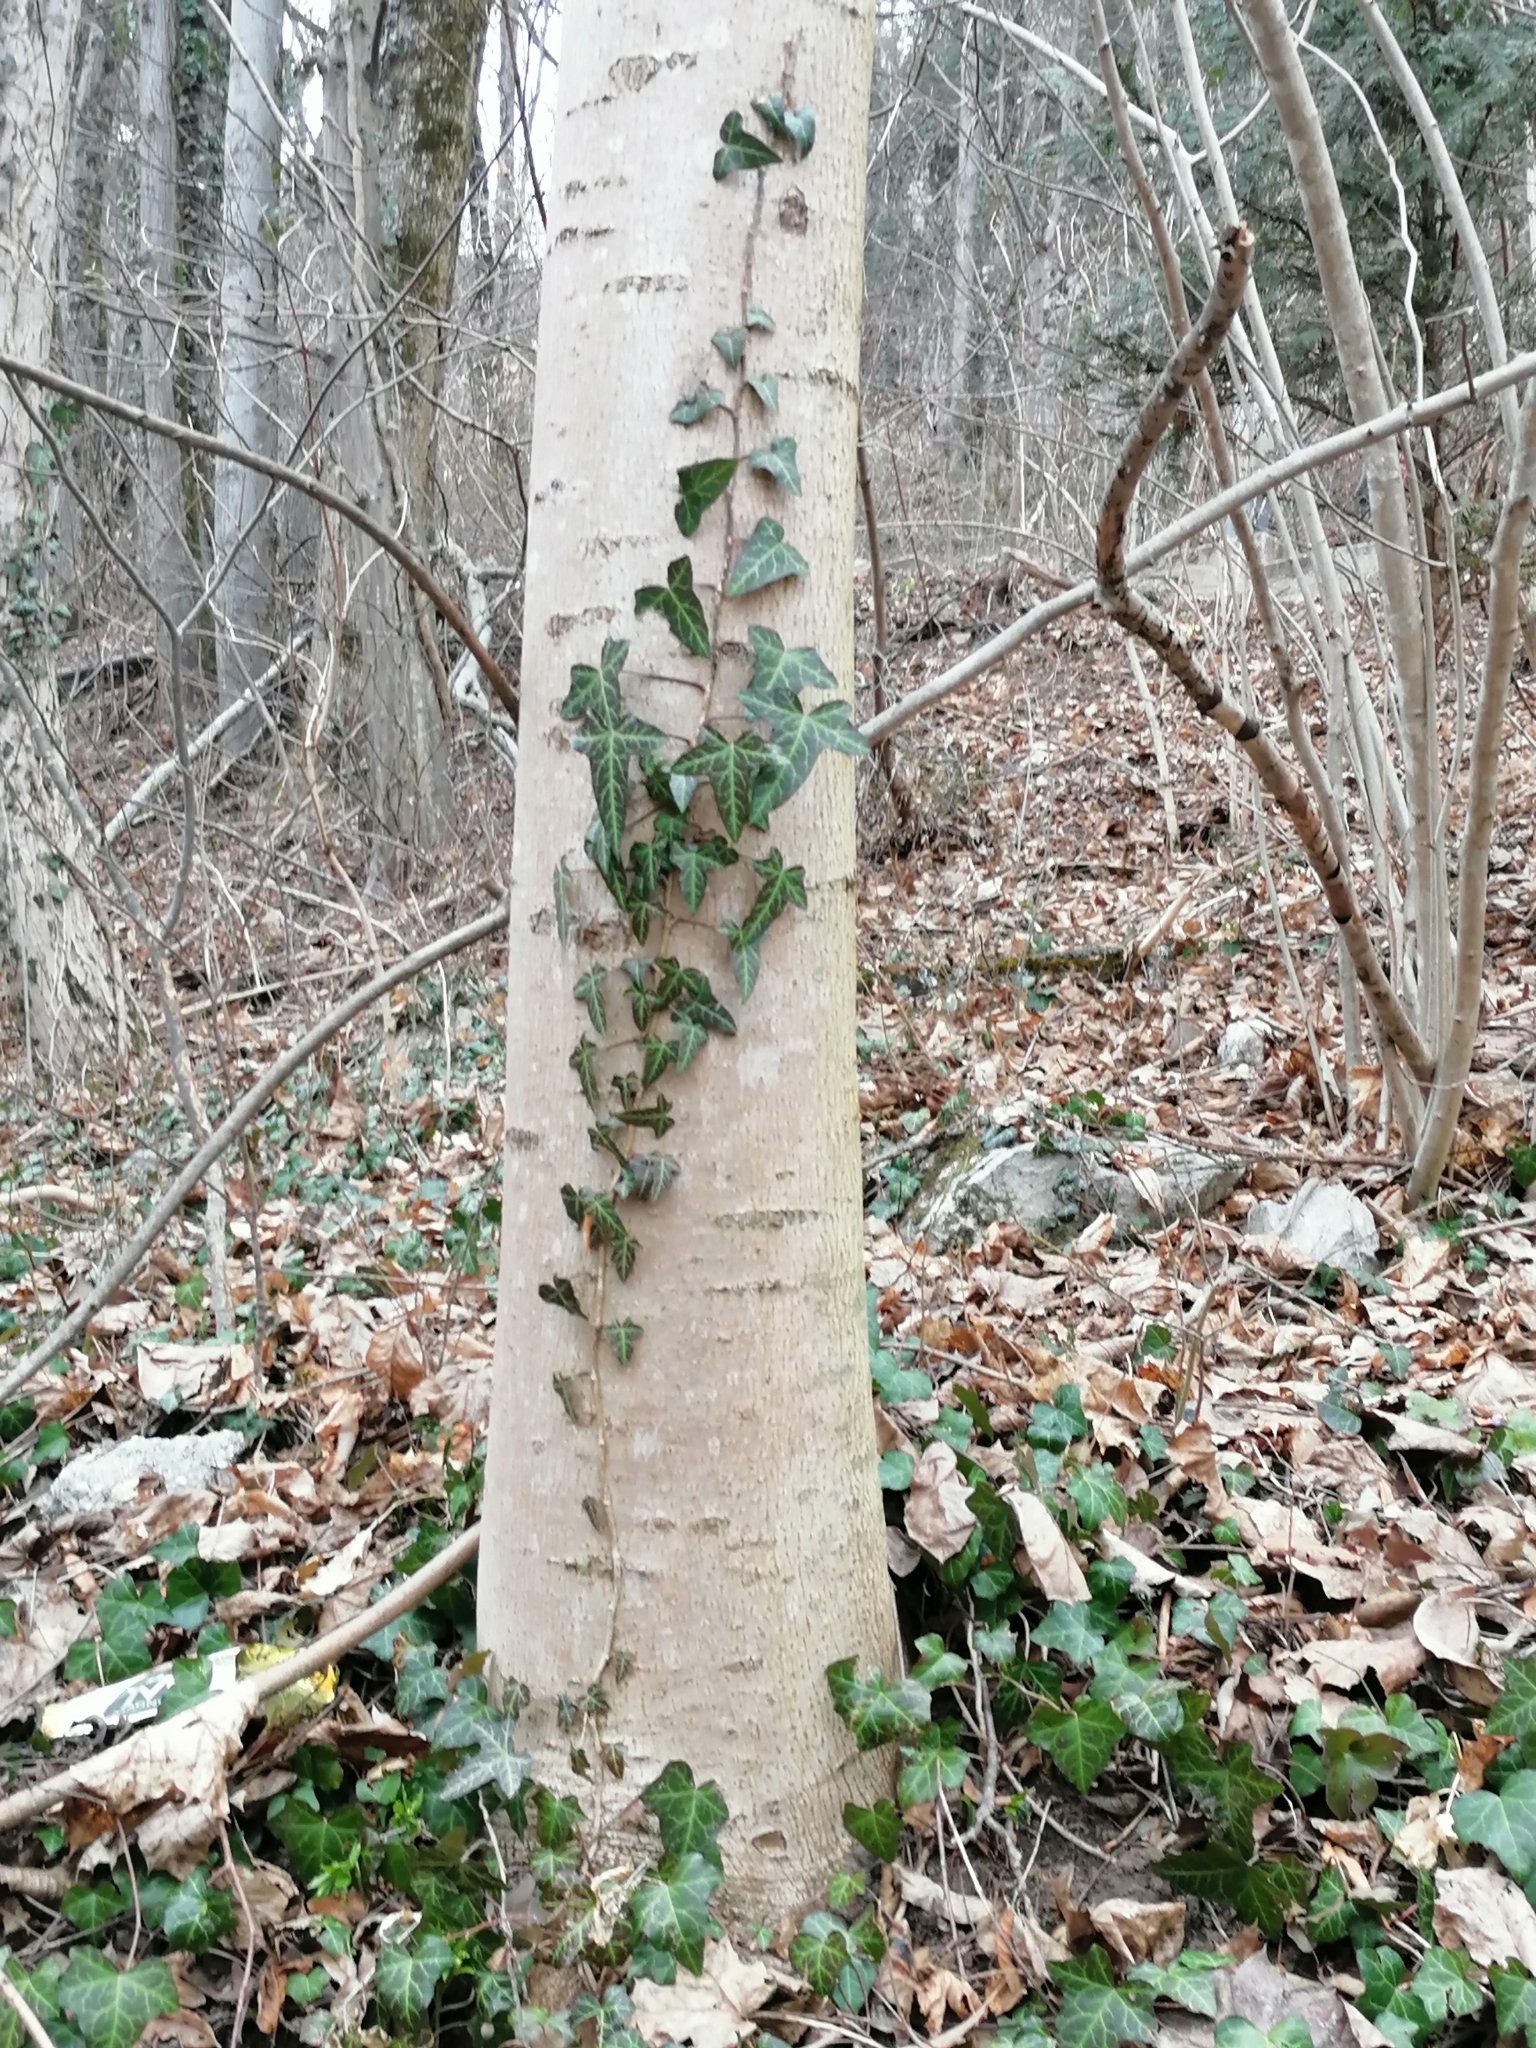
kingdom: Plantae
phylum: Tracheophyta
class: Magnoliopsida
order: Apiales
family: Araliaceae
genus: Hedera
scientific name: Hedera helix
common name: Ivy
